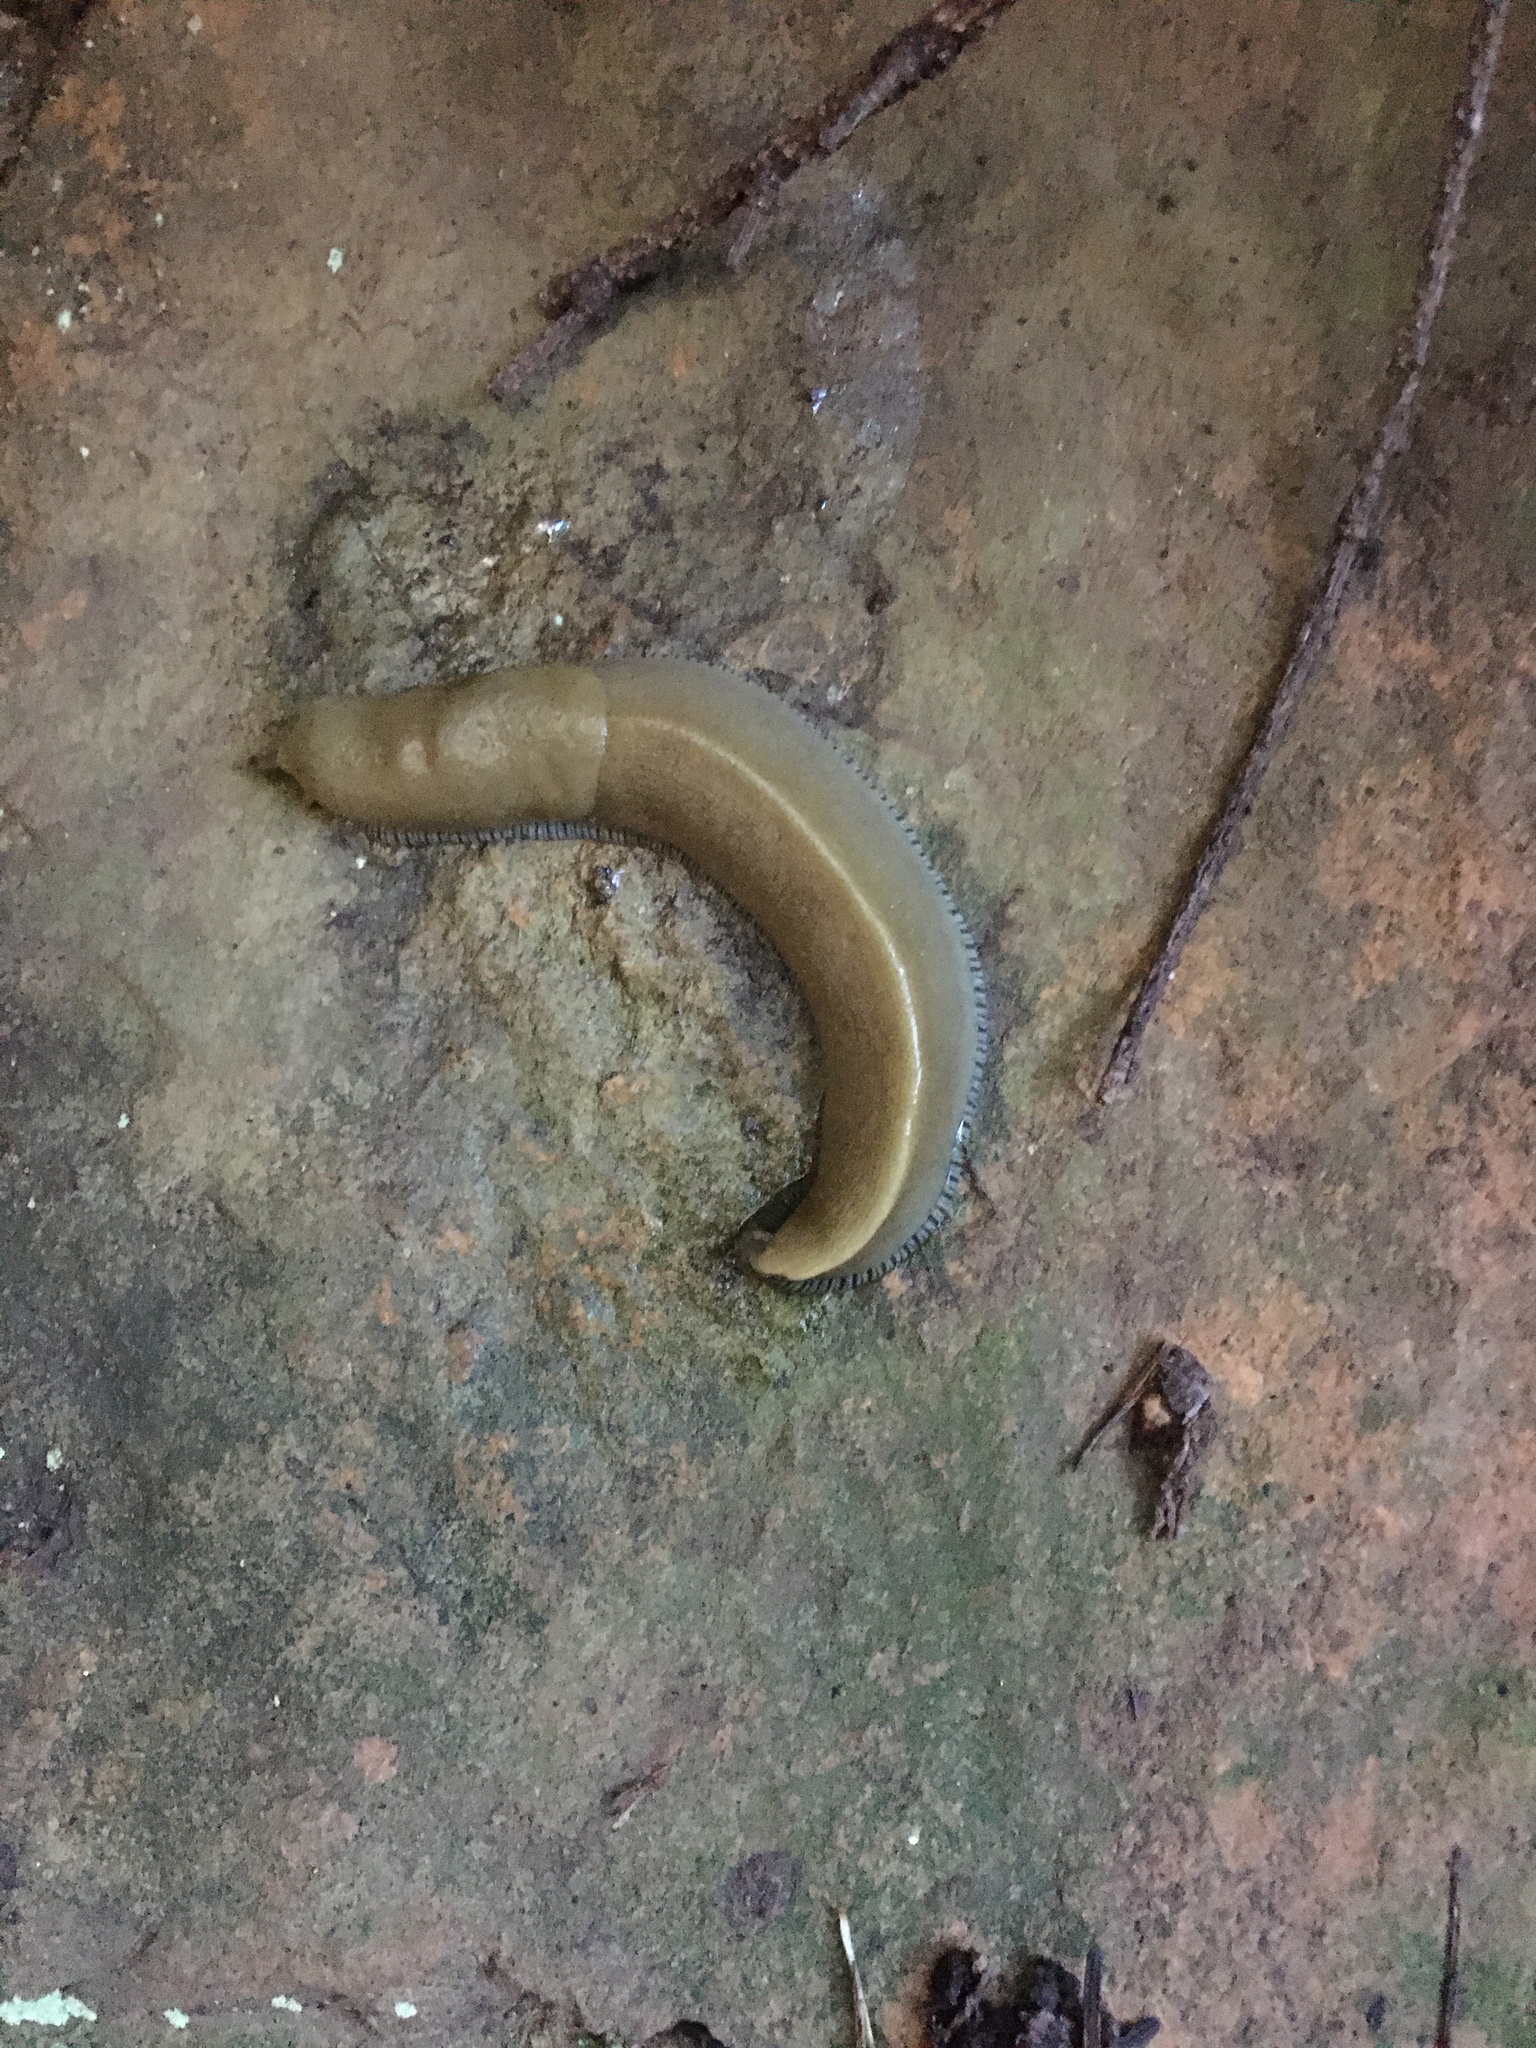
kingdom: Animalia
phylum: Mollusca
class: Gastropoda
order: Stylommatophora
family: Ariolimacidae
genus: Ariolimax
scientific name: Ariolimax buttoni
